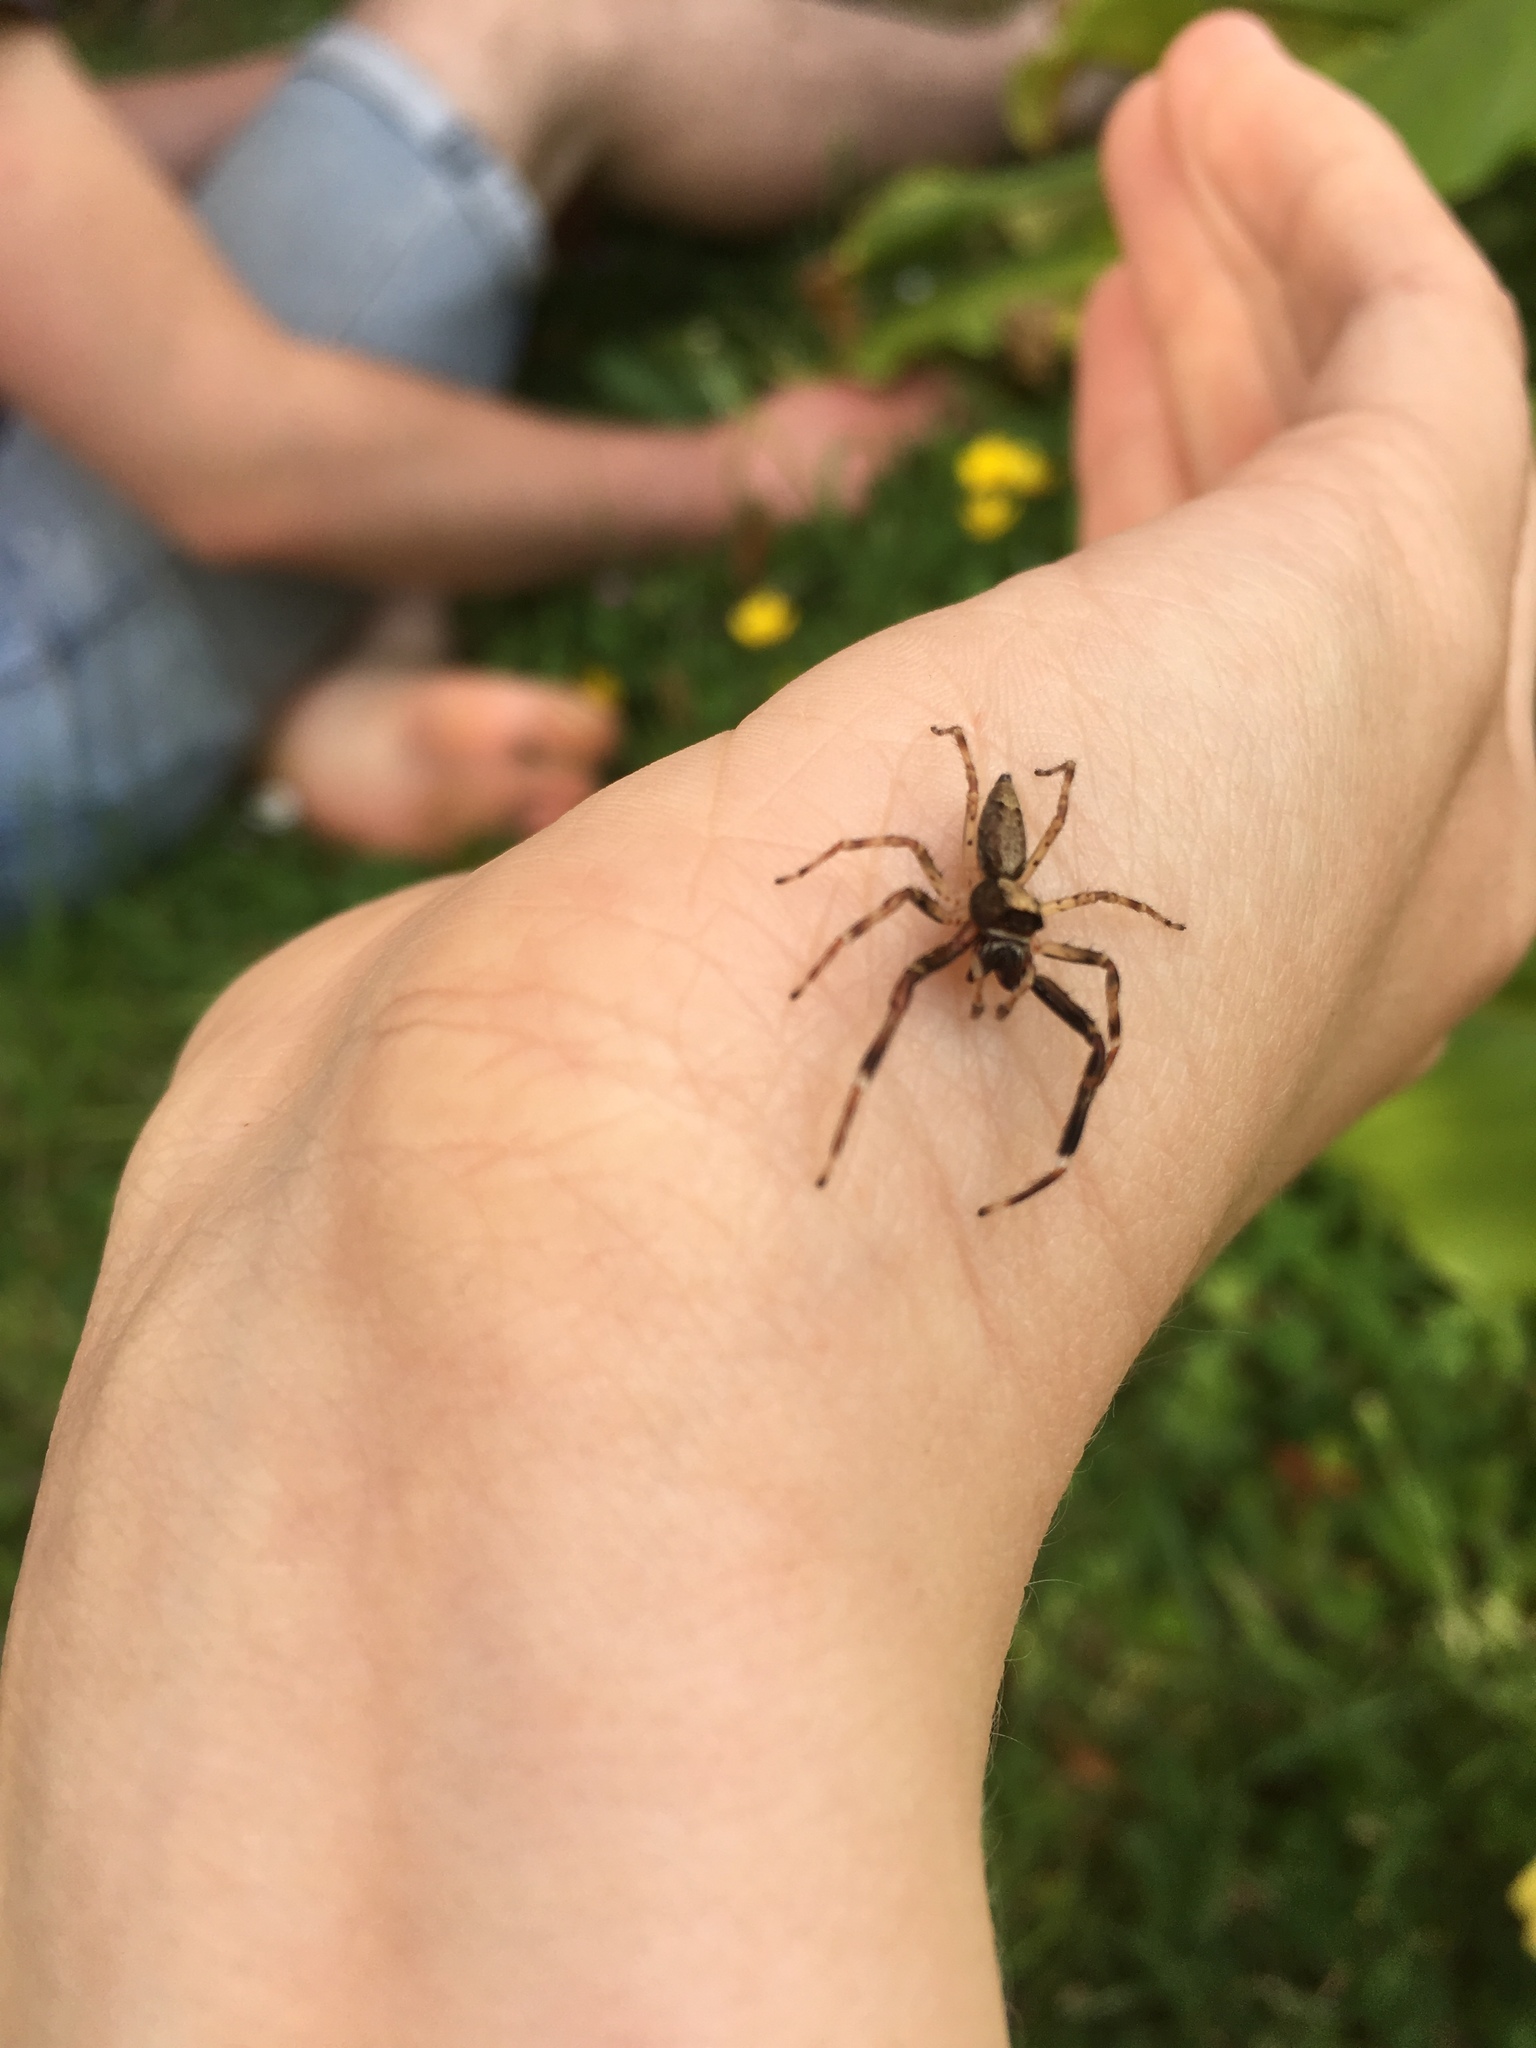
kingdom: Animalia
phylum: Arthropoda
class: Arachnida
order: Araneae
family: Salticidae
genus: Helpis
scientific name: Helpis minitabunda
